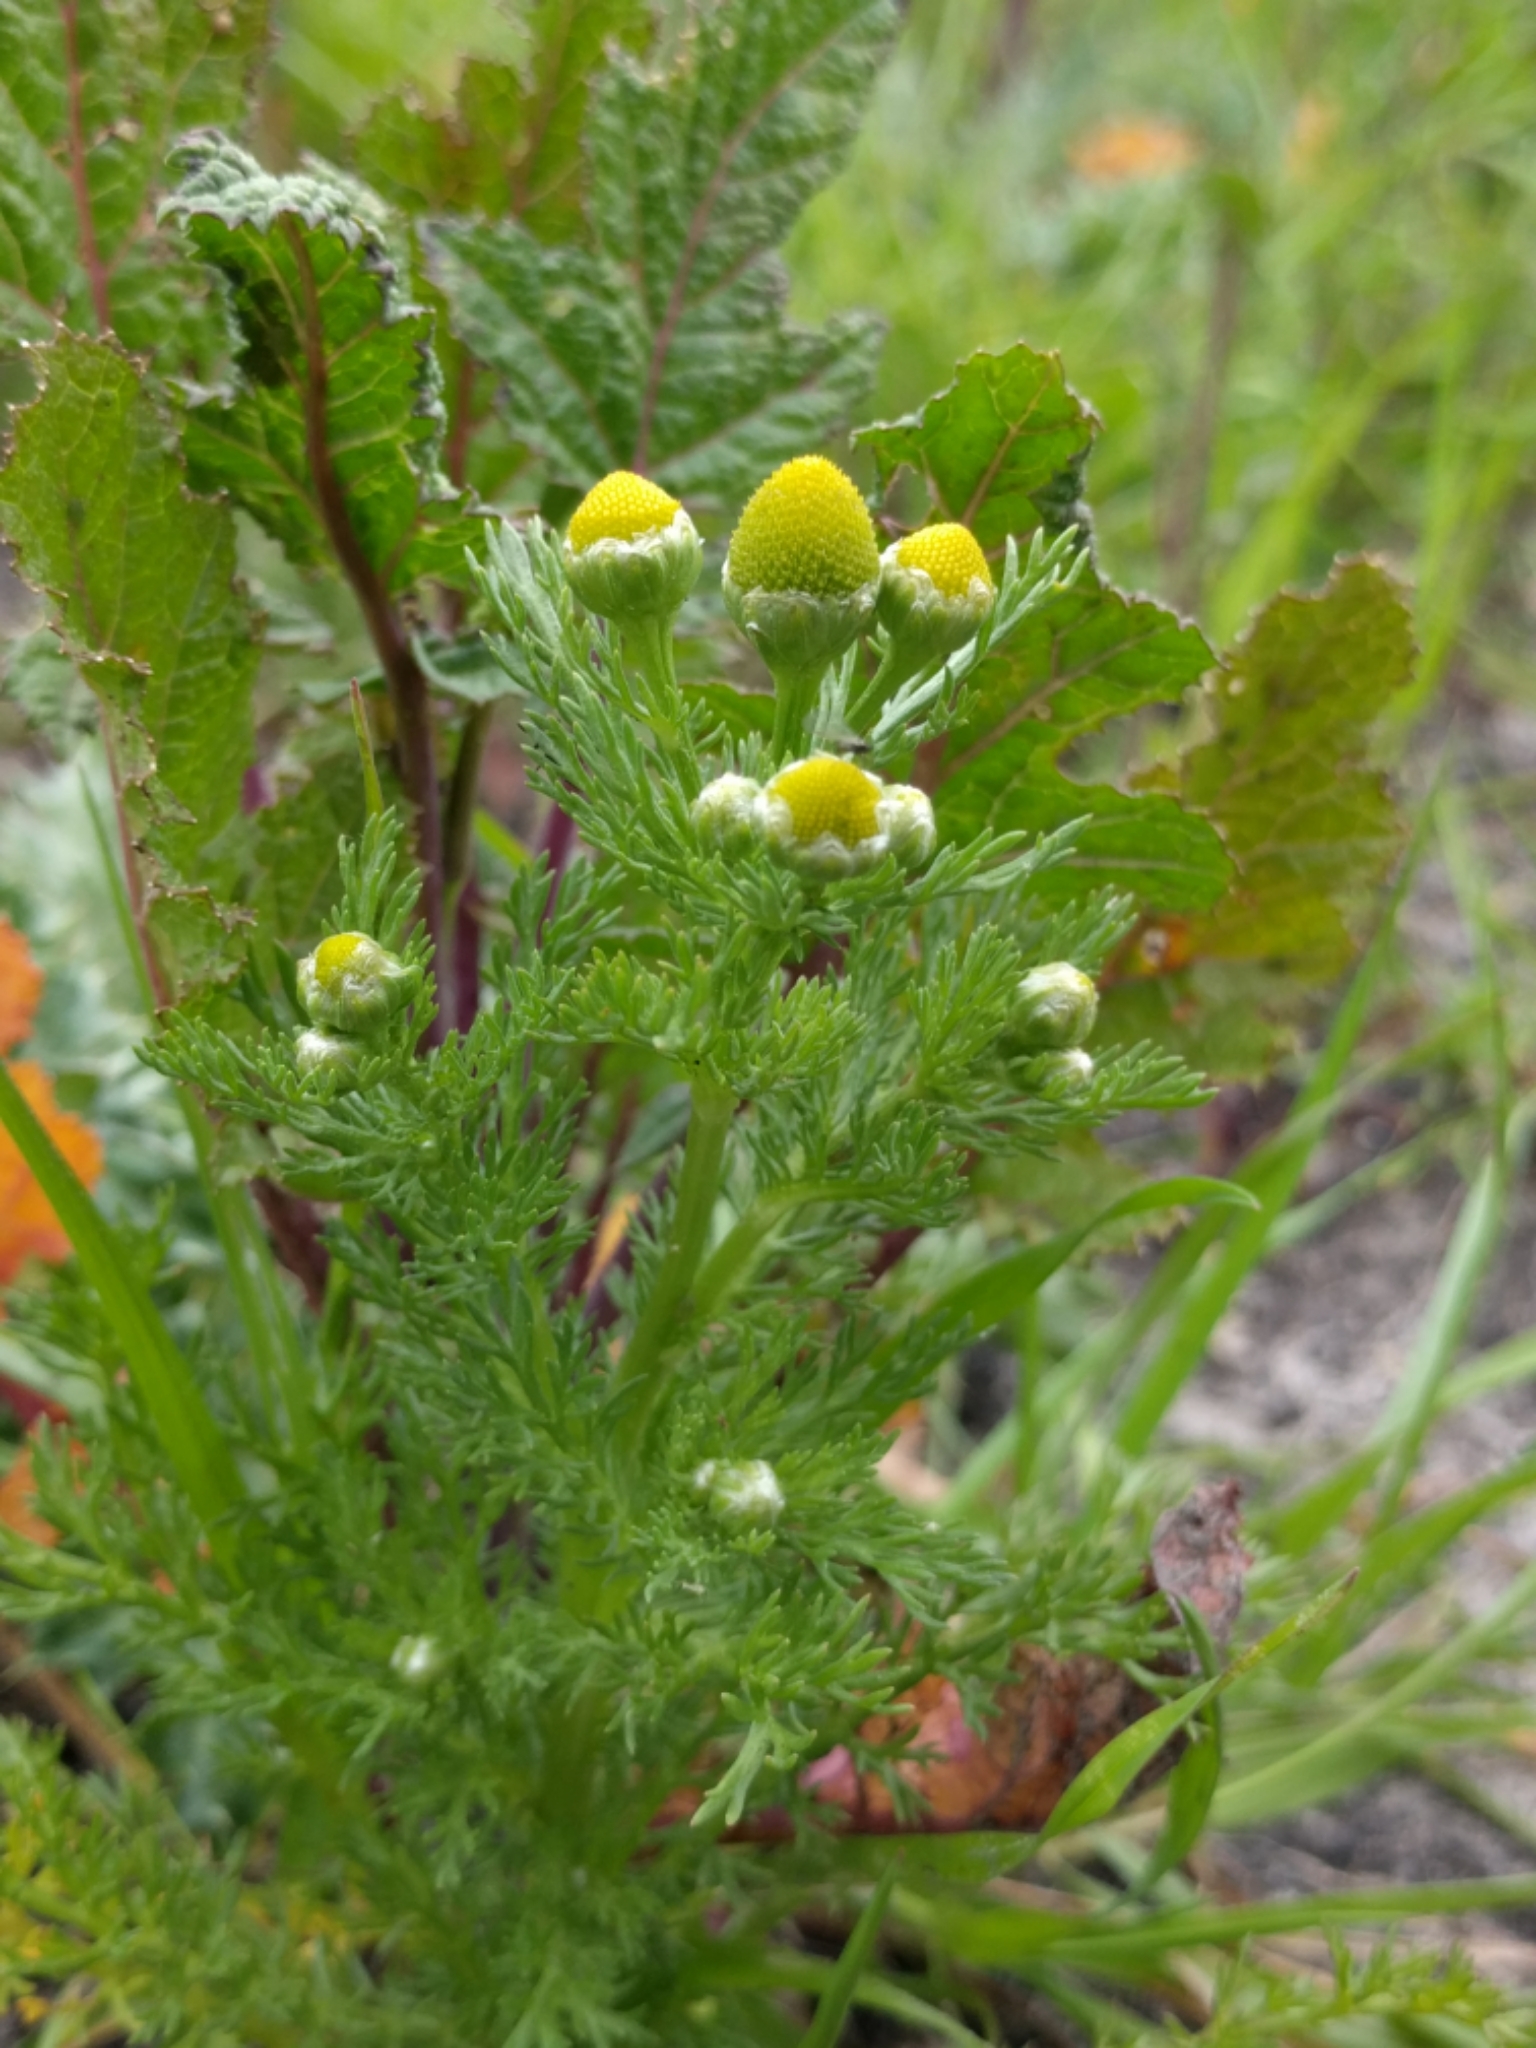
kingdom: Plantae
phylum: Tracheophyta
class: Magnoliopsida
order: Asterales
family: Asteraceae
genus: Matricaria
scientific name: Matricaria discoidea
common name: Disc mayweed
